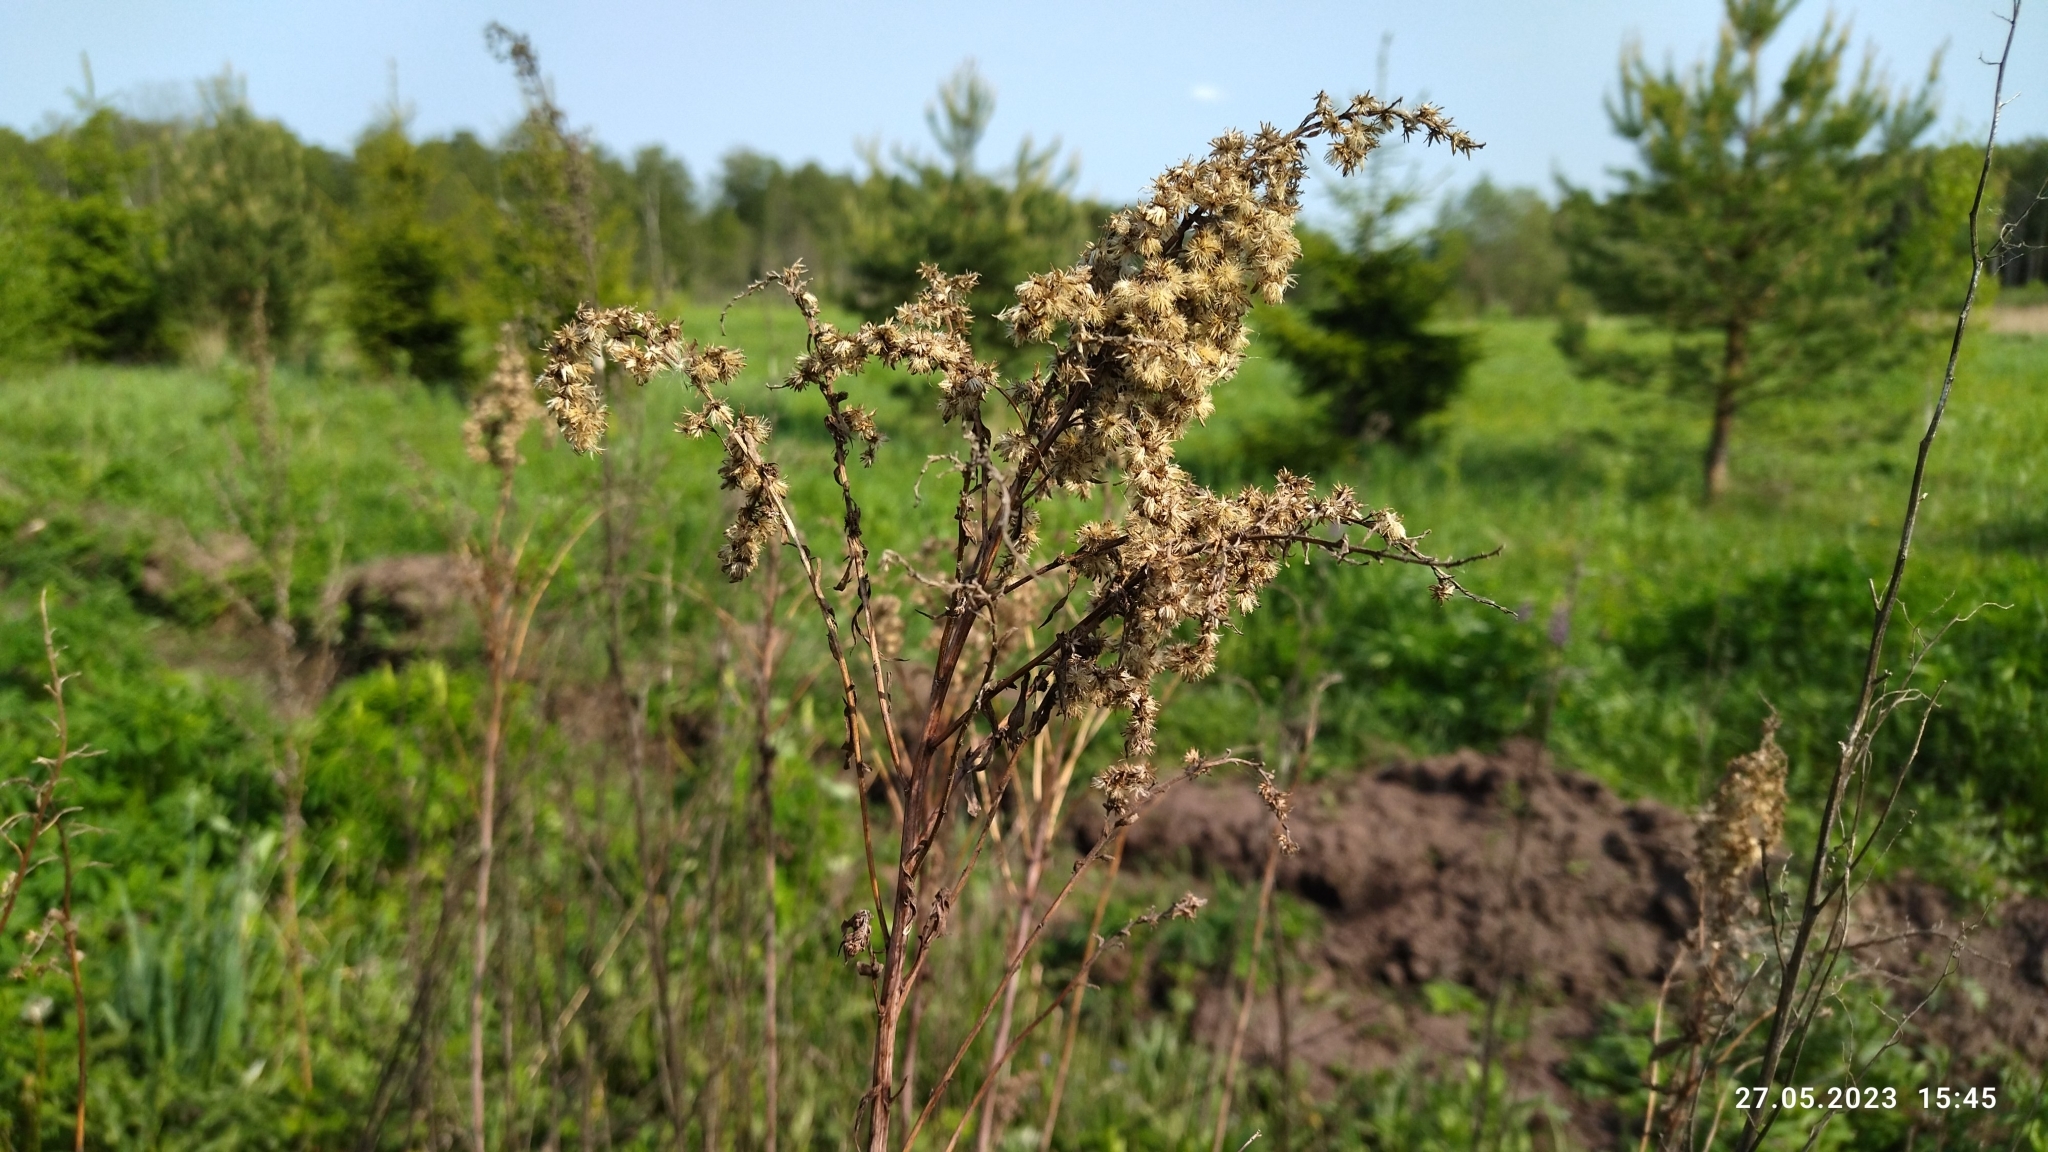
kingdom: Plantae
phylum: Tracheophyta
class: Magnoliopsida
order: Asterales
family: Asteraceae
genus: Solidago
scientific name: Solidago gigantea
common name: Giant goldenrod
